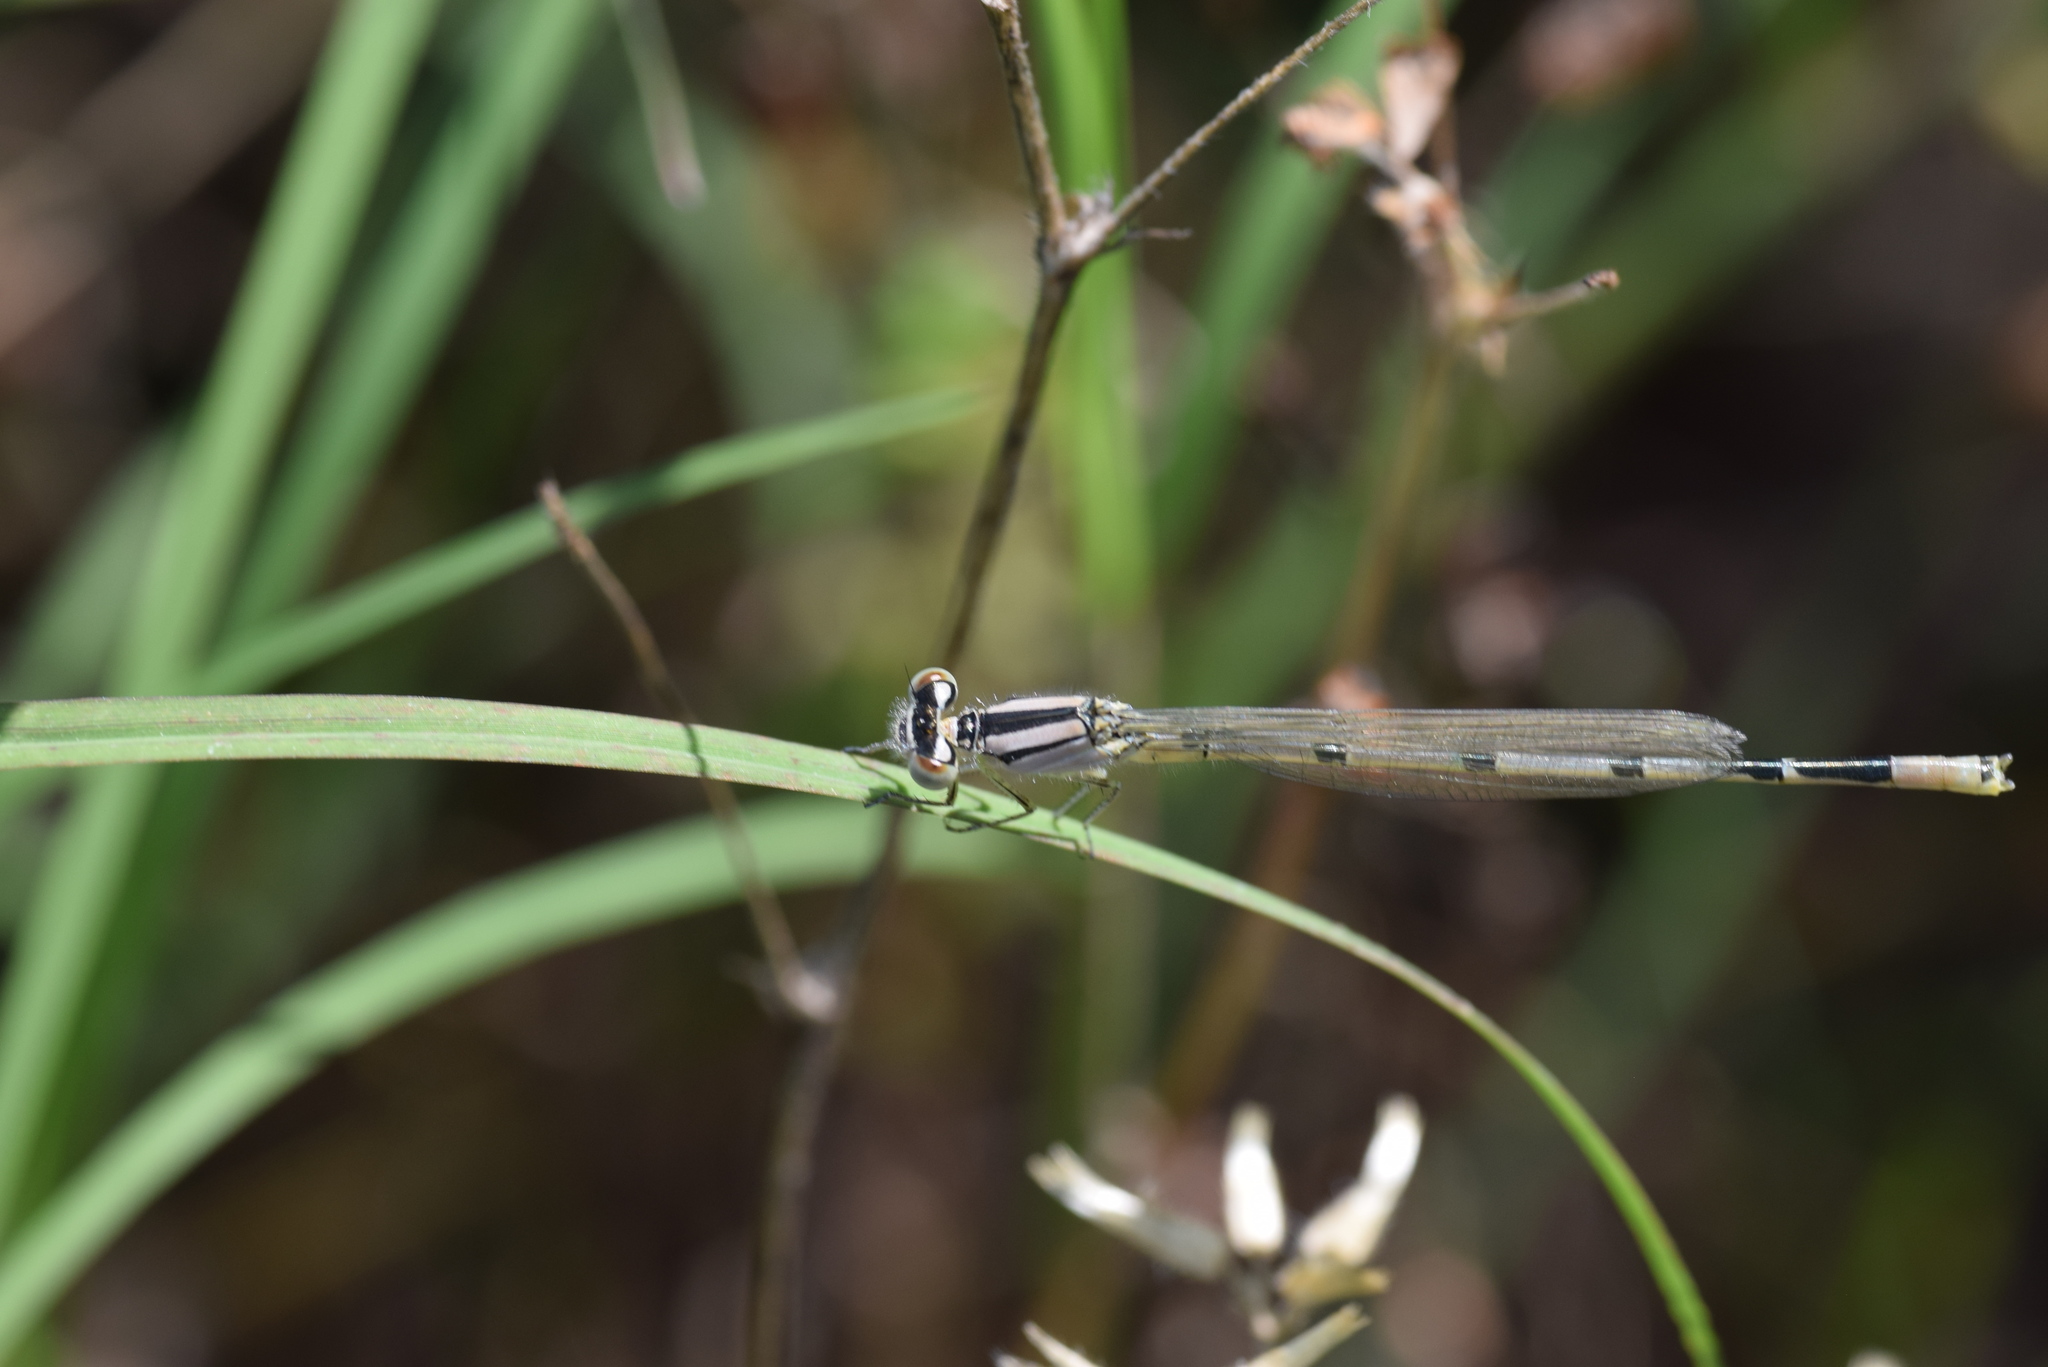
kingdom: Animalia
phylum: Arthropoda
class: Insecta
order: Odonata
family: Coenagrionidae
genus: Enallagma
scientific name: Enallagma civile
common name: Damselfly
